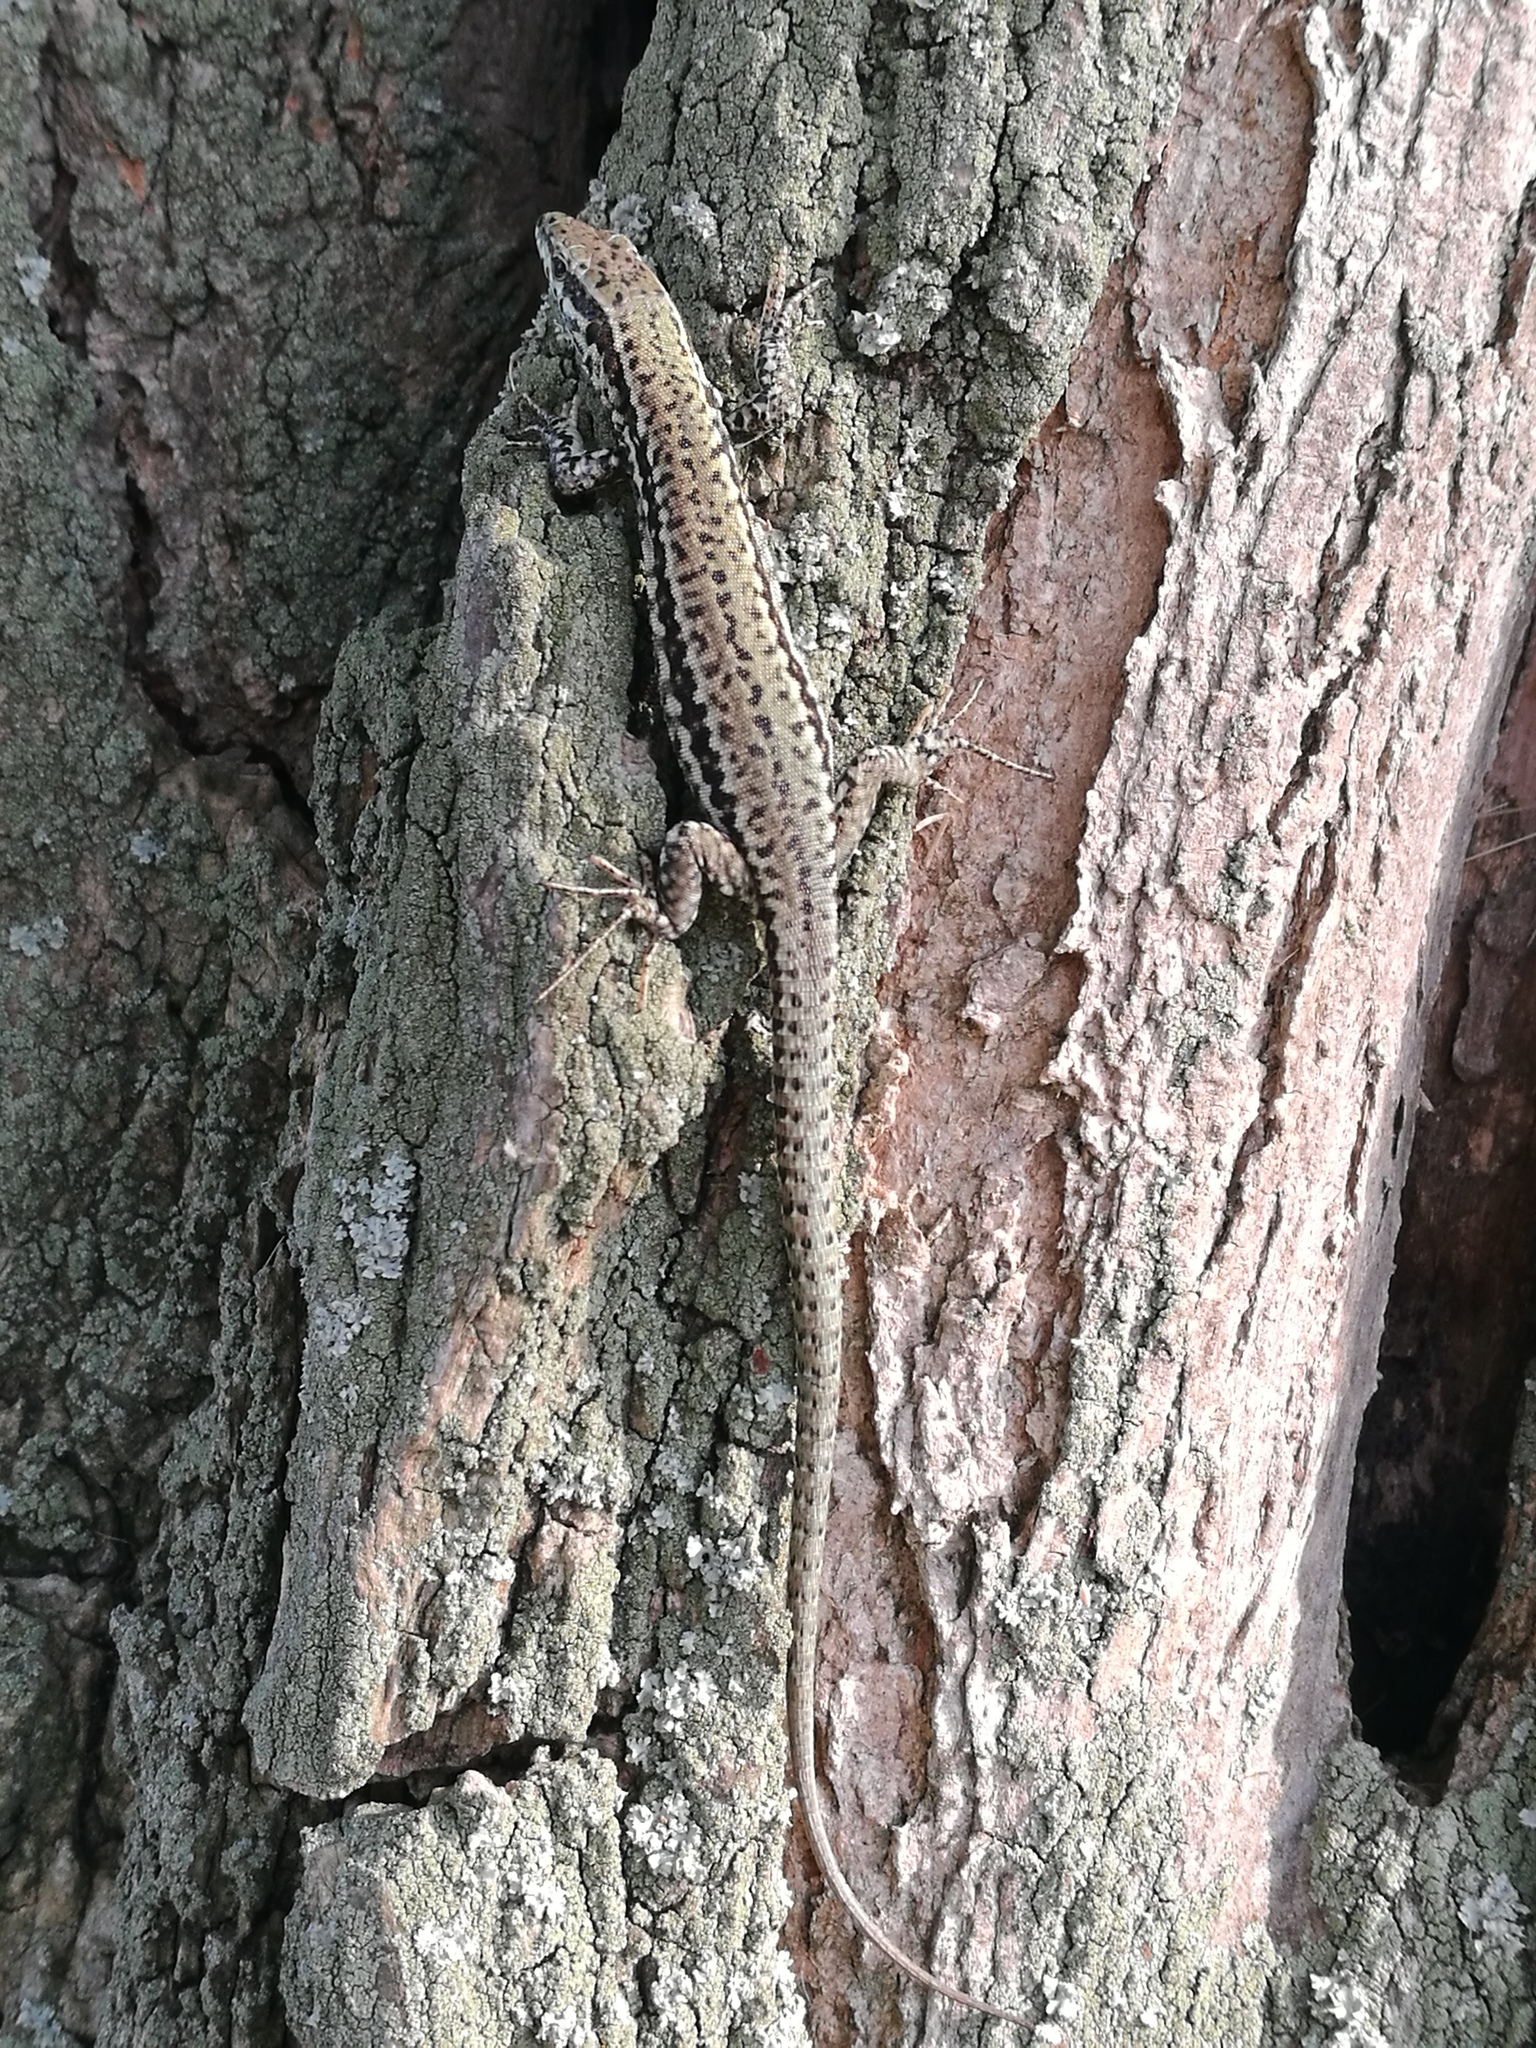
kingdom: Animalia
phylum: Chordata
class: Squamata
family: Lacertidae
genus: Podarcis
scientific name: Podarcis muralis
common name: Common wall lizard
